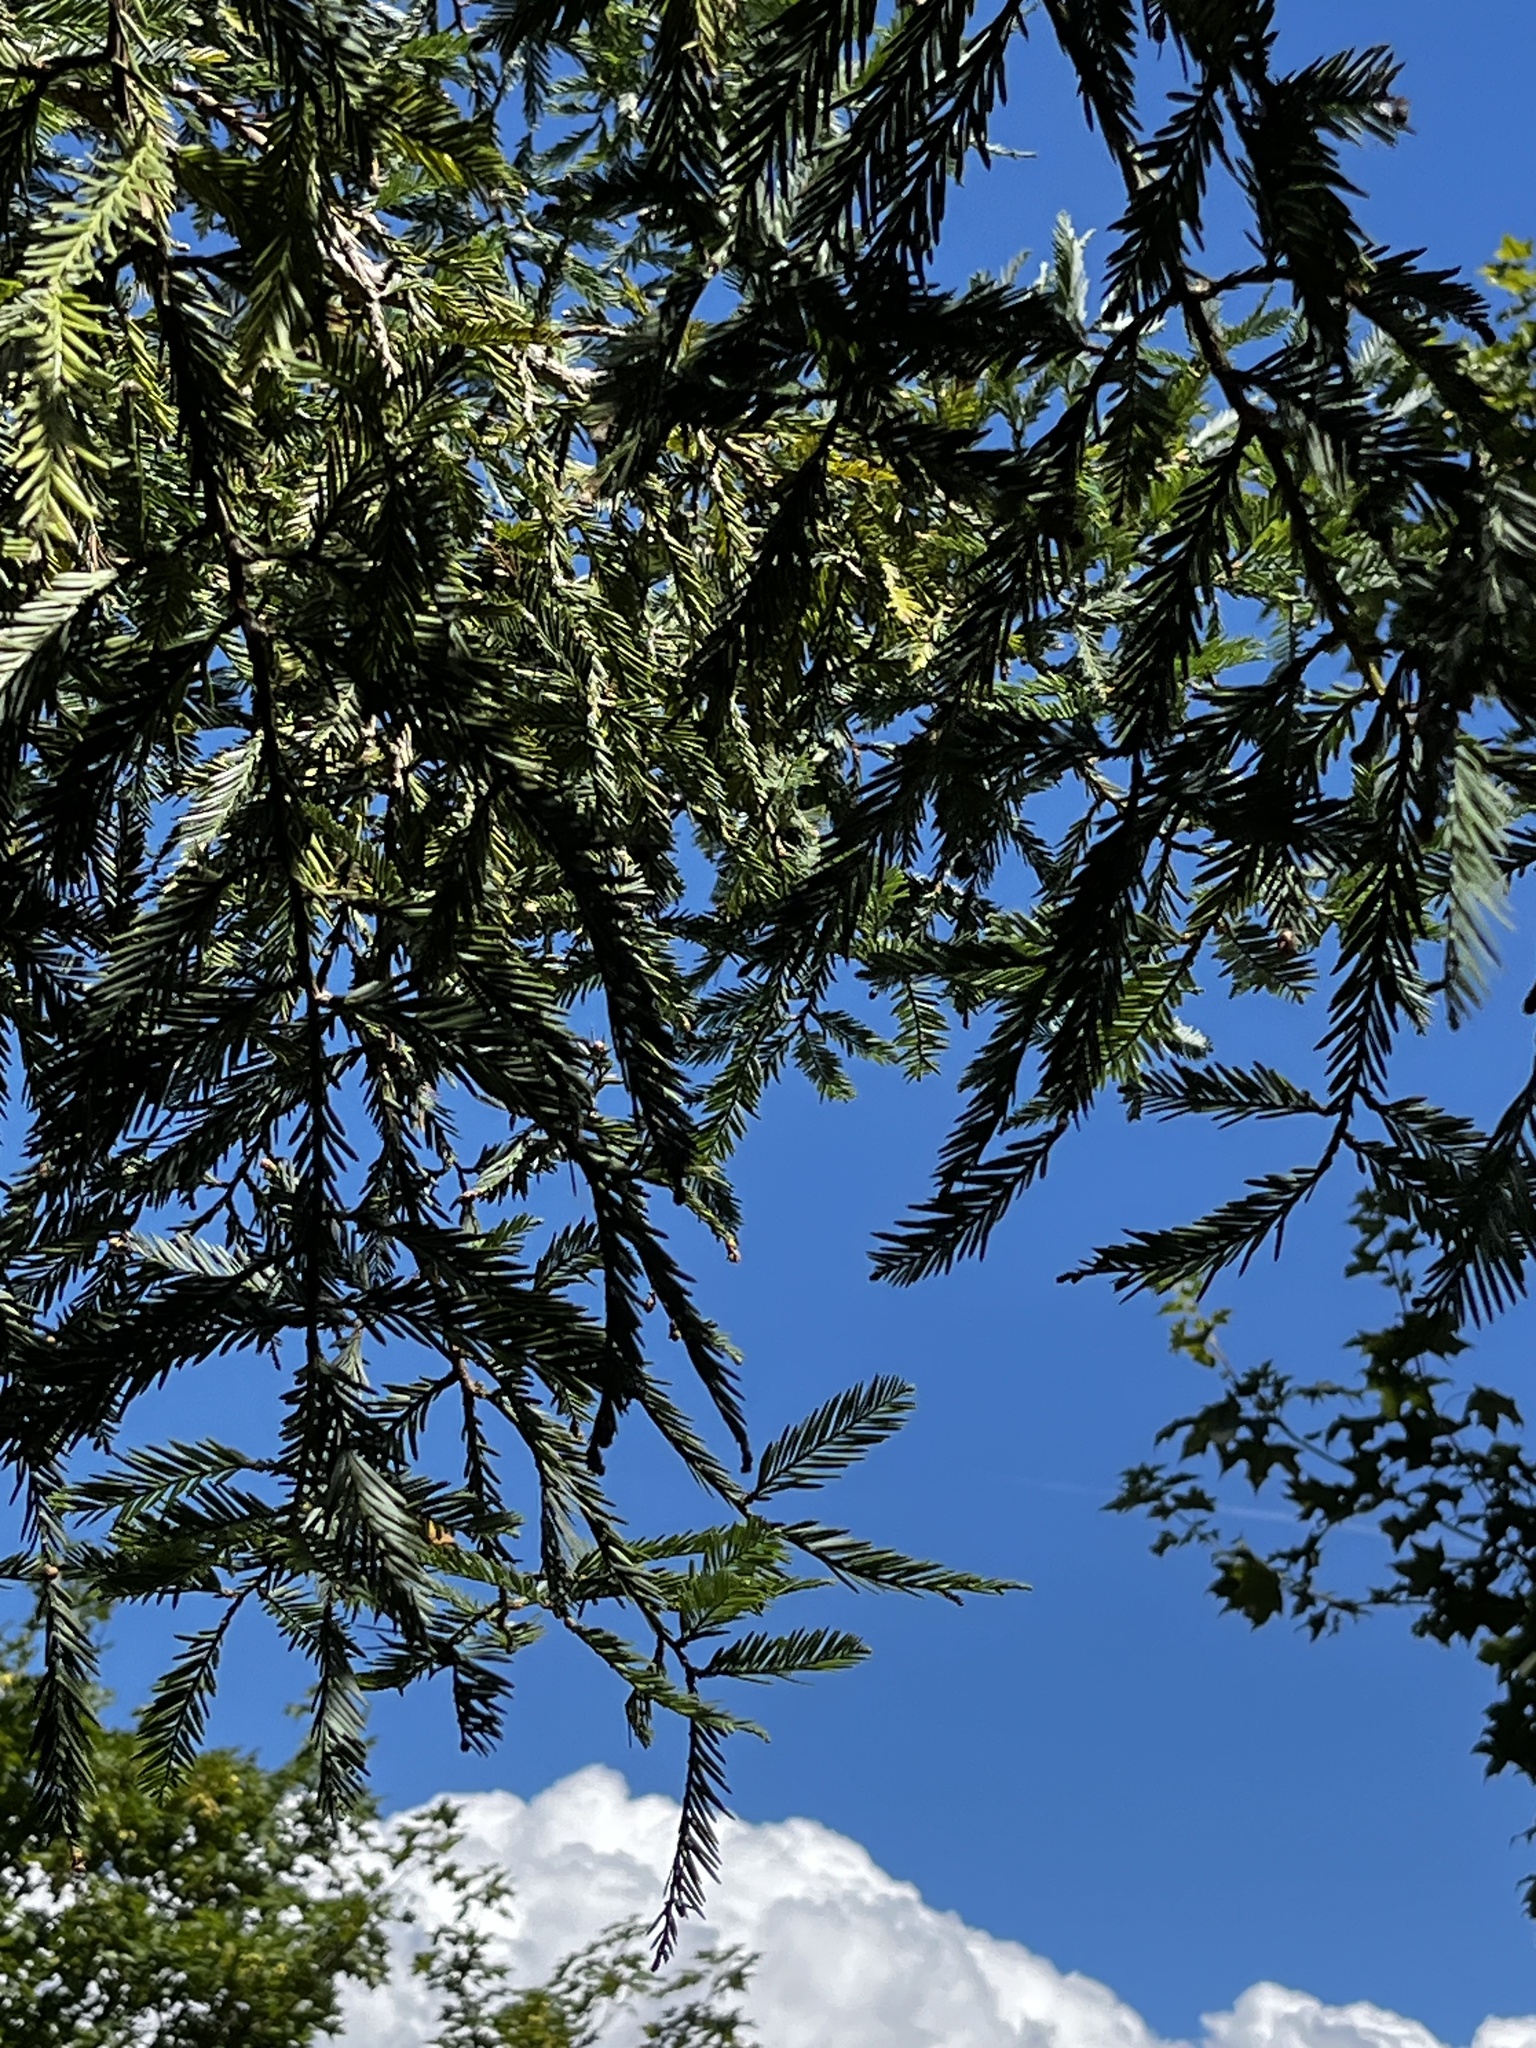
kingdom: Plantae
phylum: Tracheophyta
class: Pinopsida
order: Pinales
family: Cupressaceae
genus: Sequoia
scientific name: Sequoia sempervirens
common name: Coast redwood
